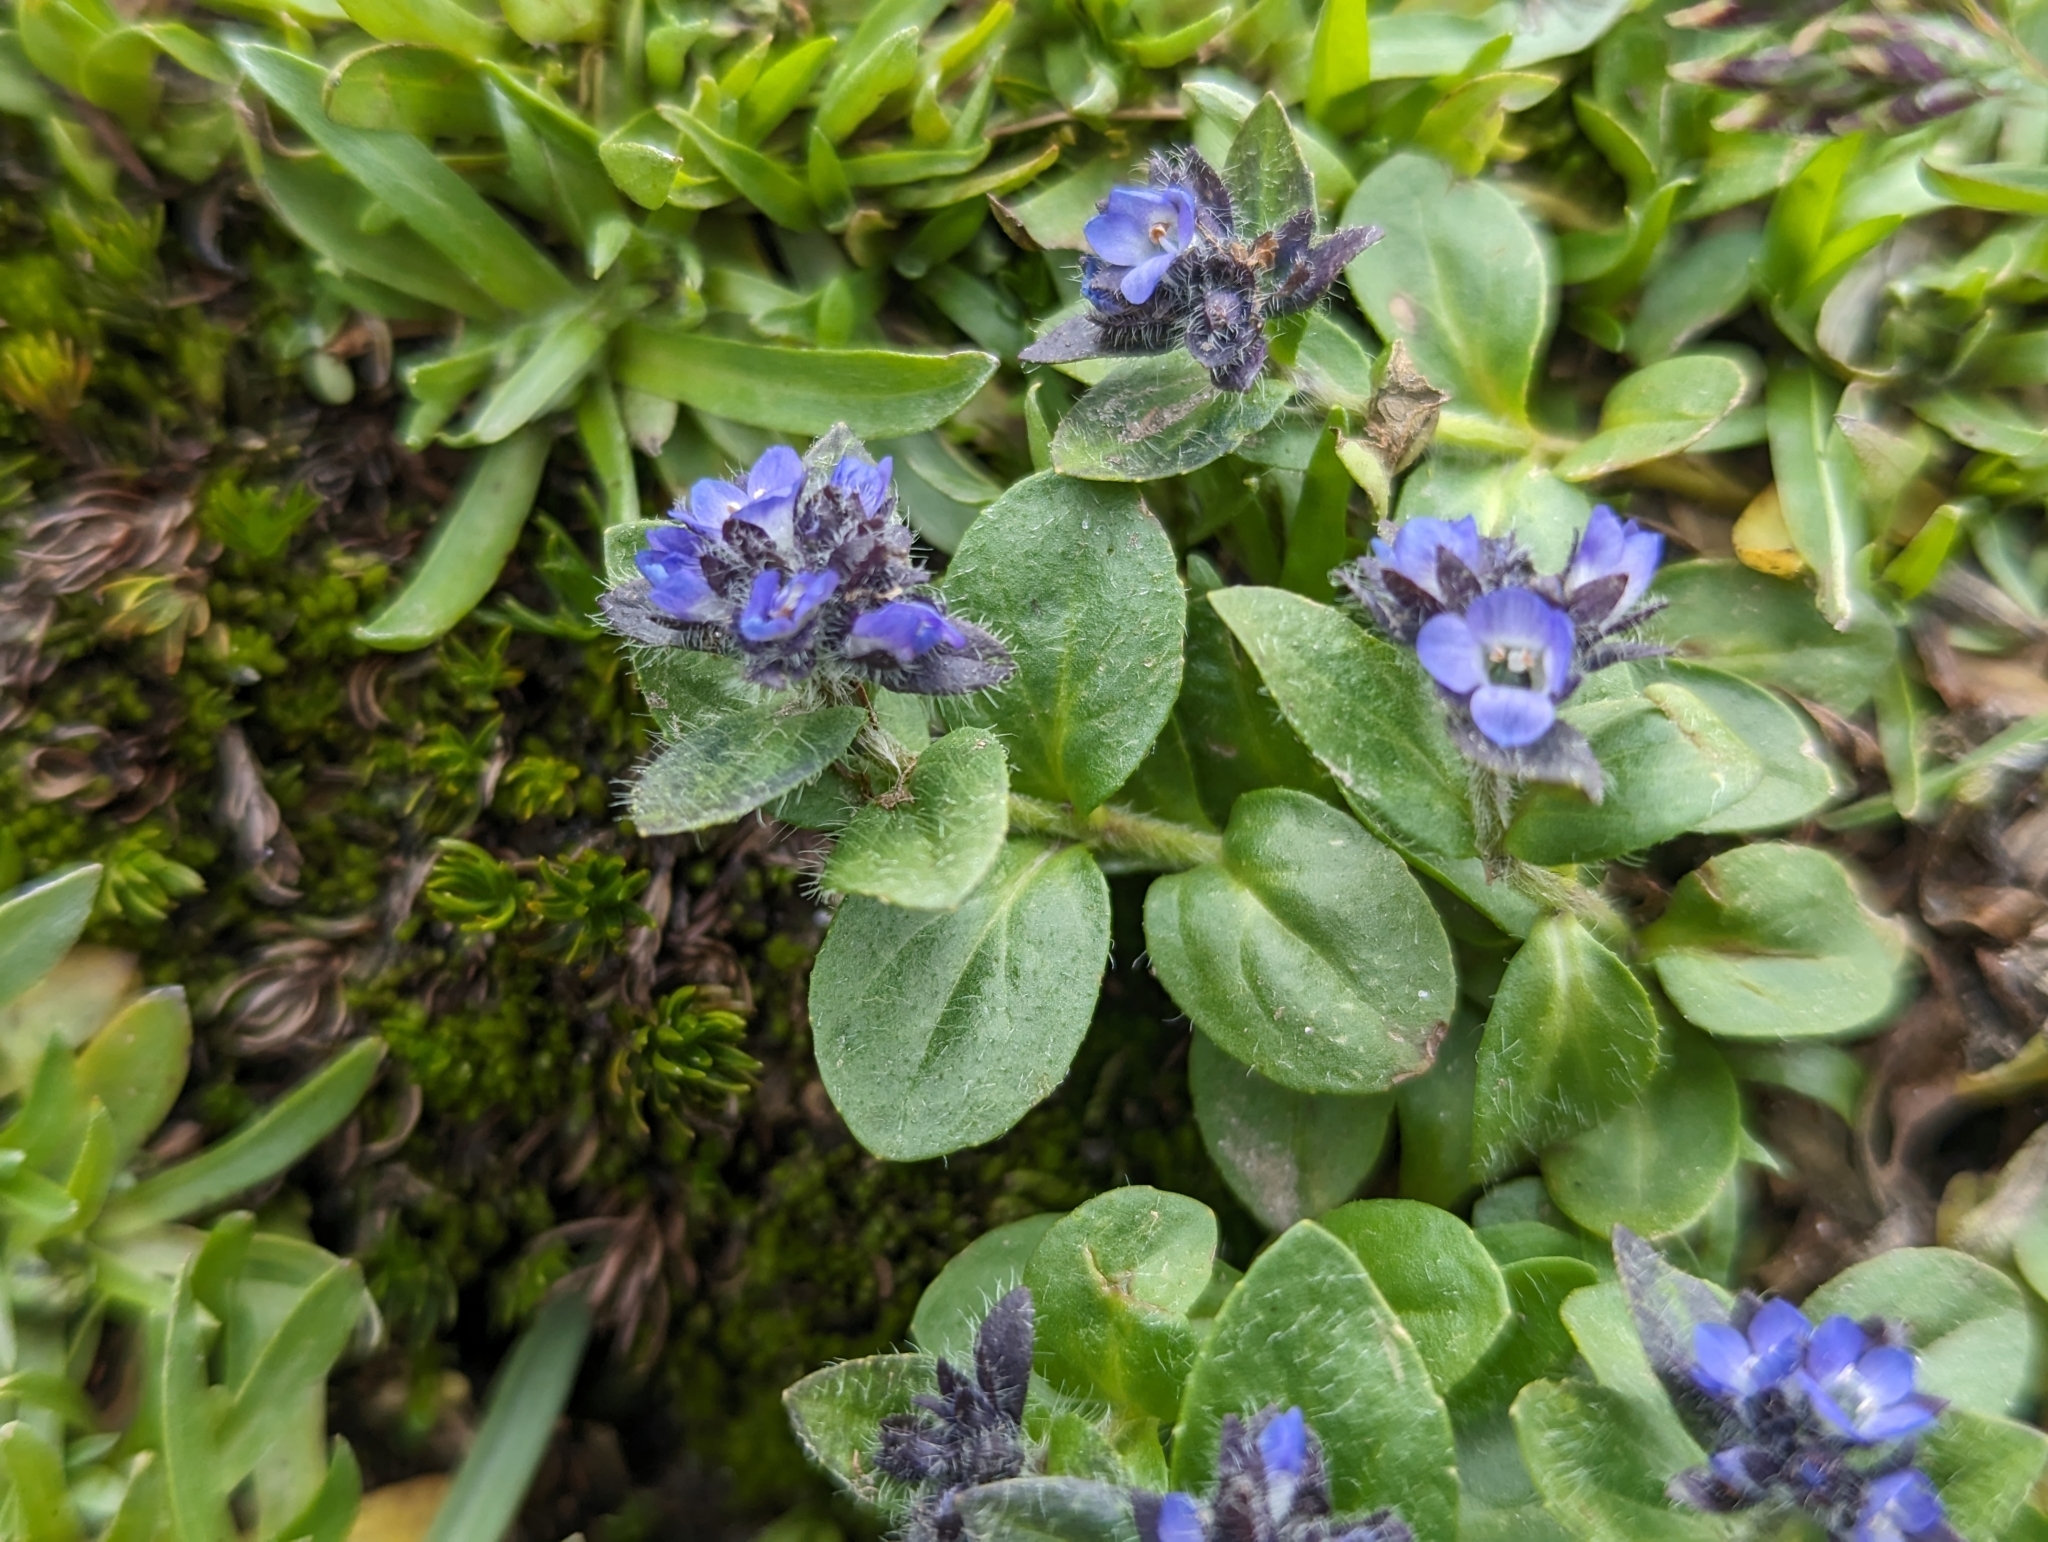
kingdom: Plantae
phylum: Tracheophyta
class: Magnoliopsida
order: Lamiales
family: Plantaginaceae
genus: Veronica
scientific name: Veronica alpina
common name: Alpine speedwell
